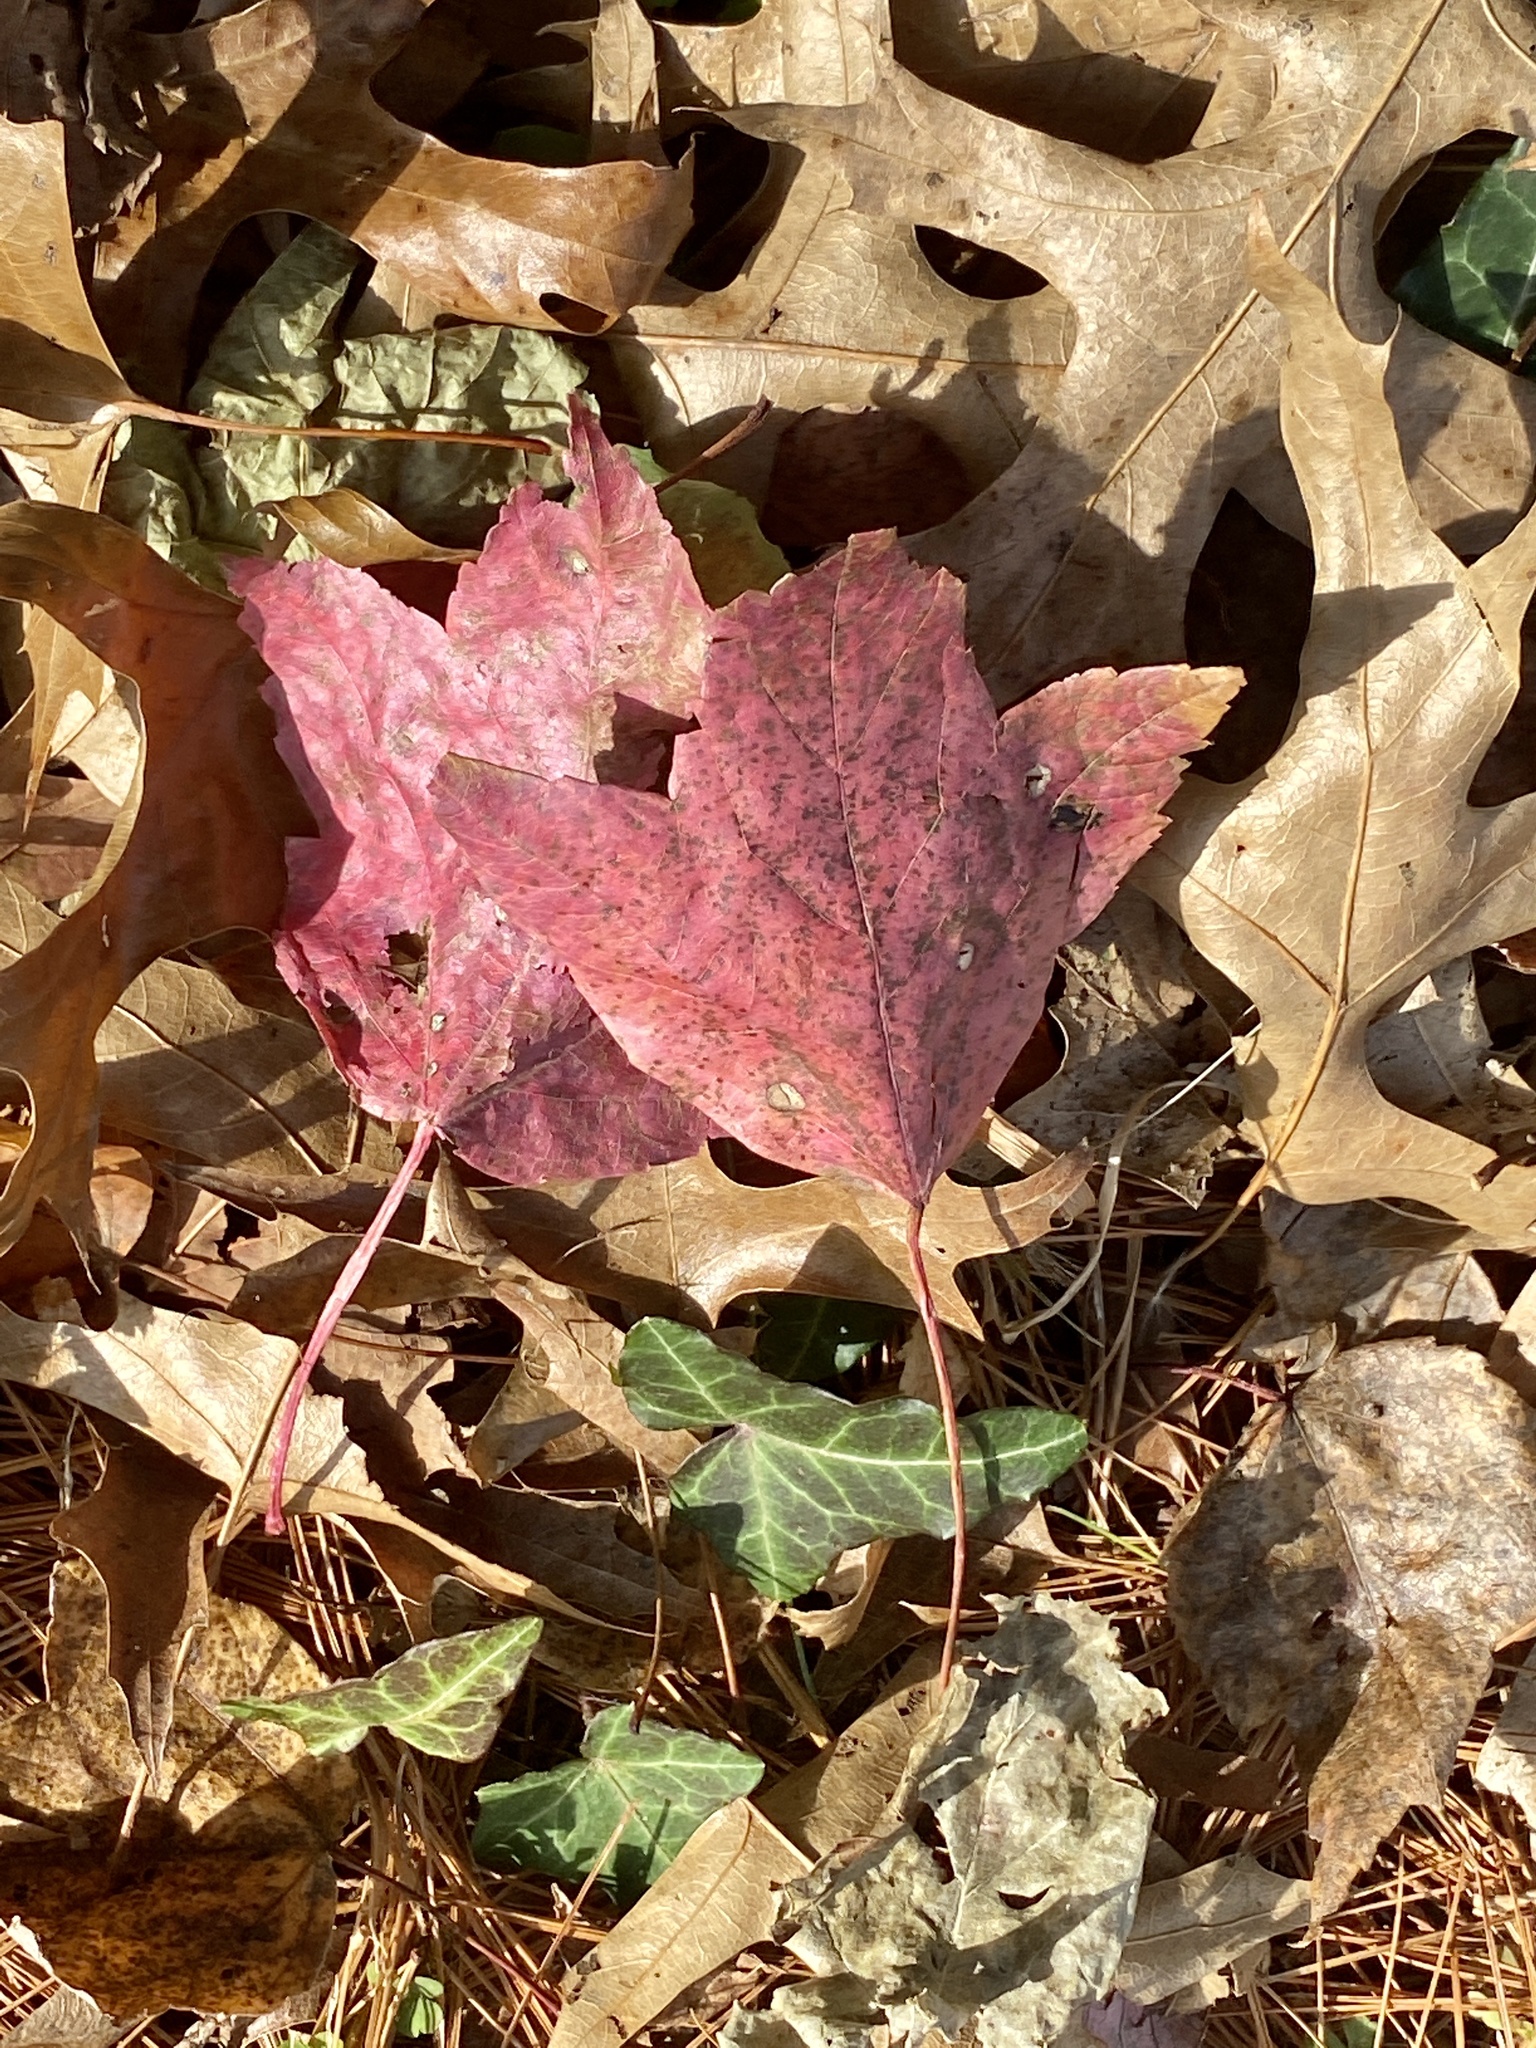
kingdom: Plantae
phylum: Tracheophyta
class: Magnoliopsida
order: Sapindales
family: Sapindaceae
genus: Acer
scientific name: Acer rubrum
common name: Red maple
